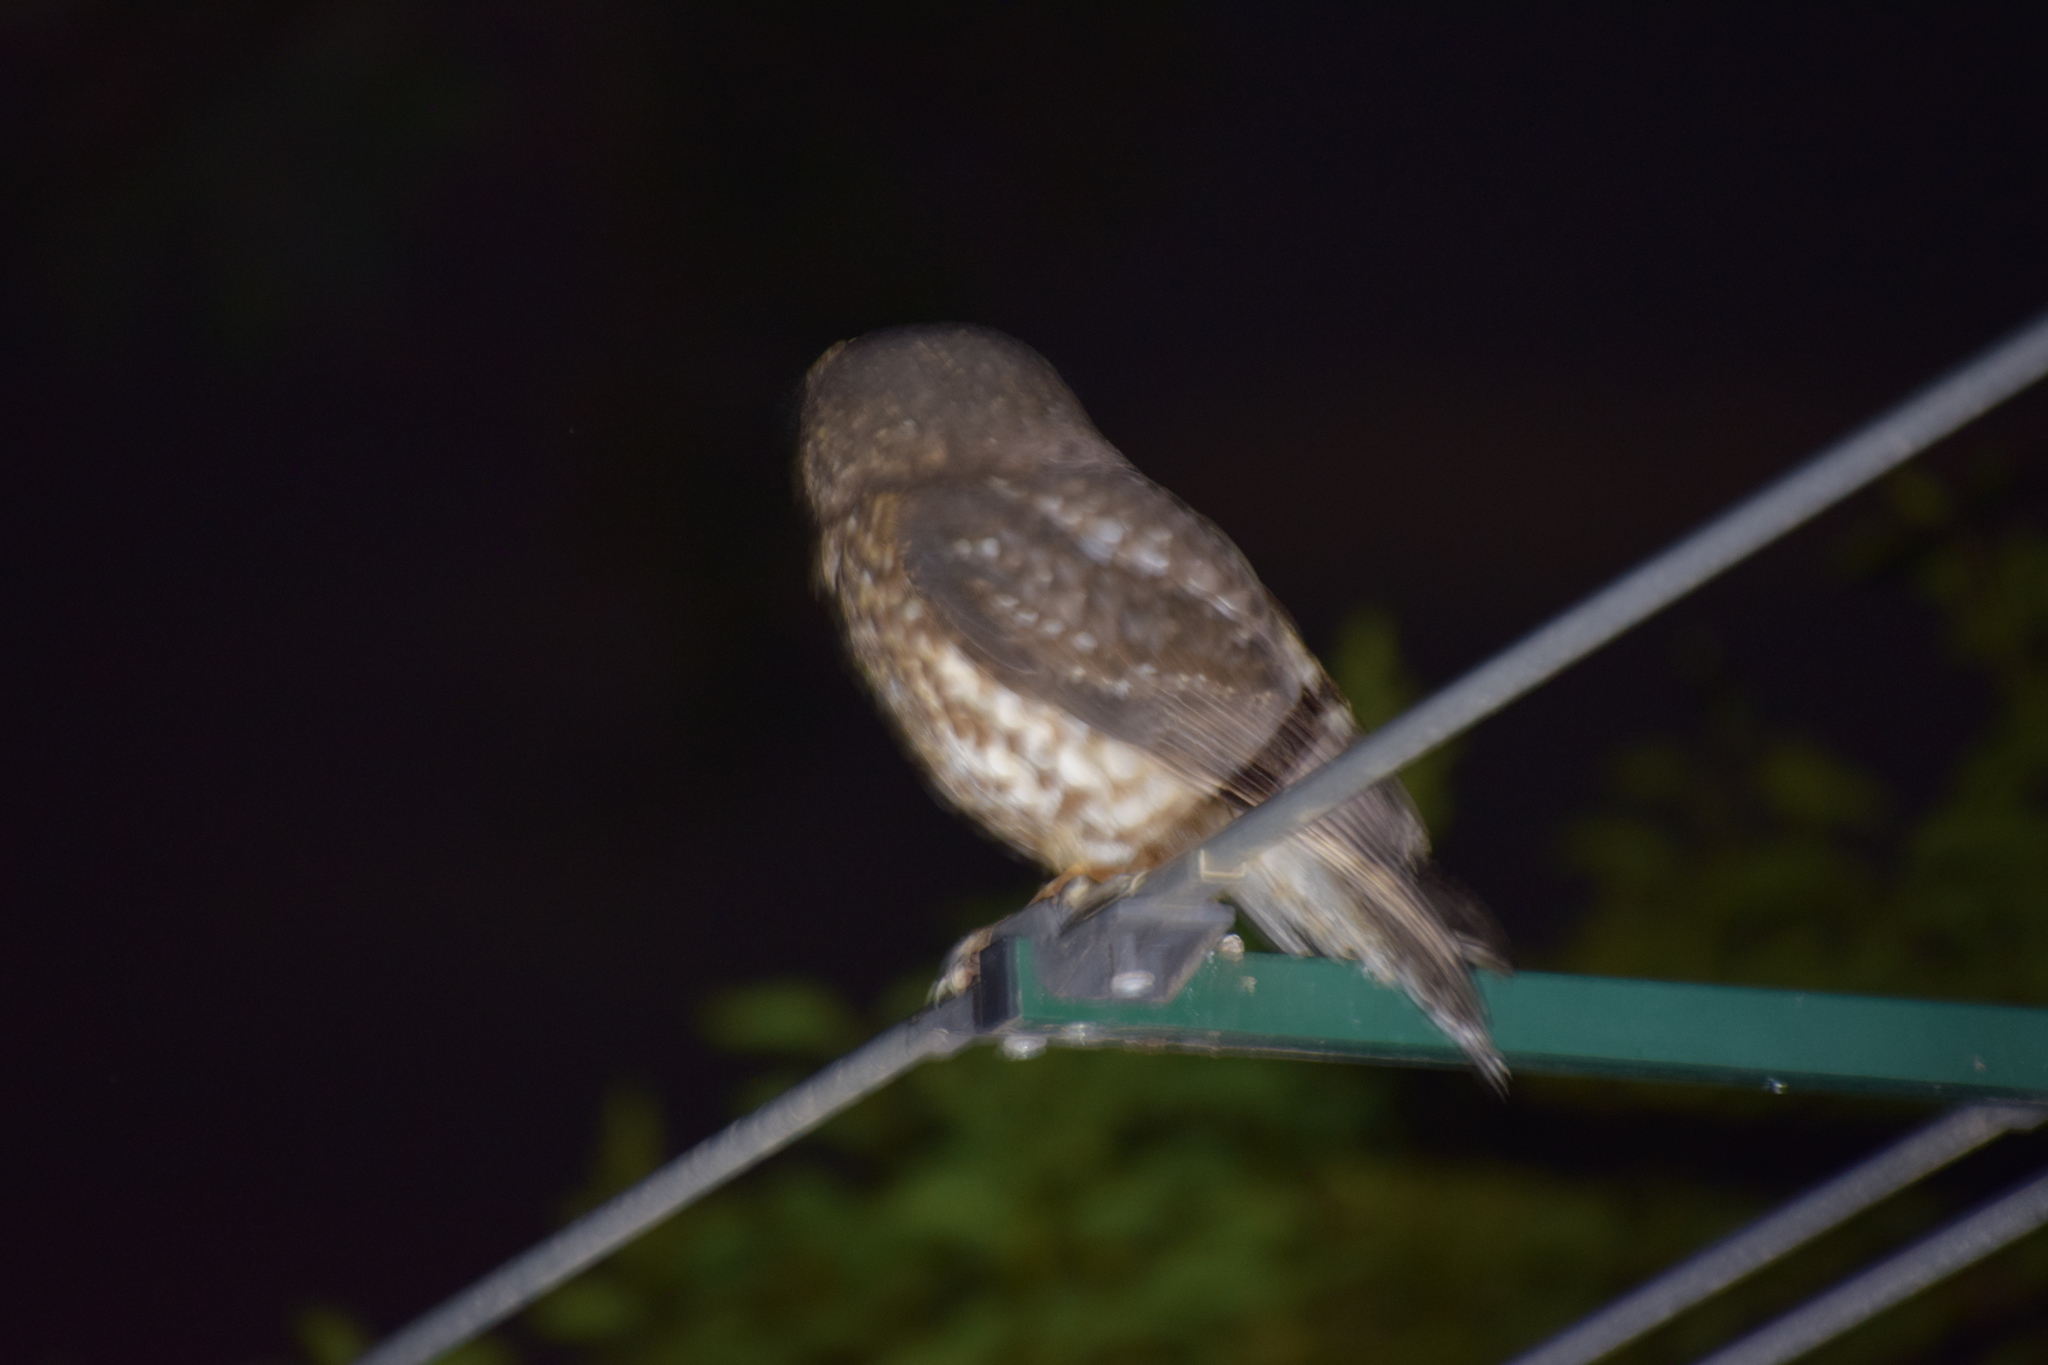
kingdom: Animalia
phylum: Chordata
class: Aves
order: Strigiformes
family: Strigidae
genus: Ninox
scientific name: Ninox boobook
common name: Southern boobook
